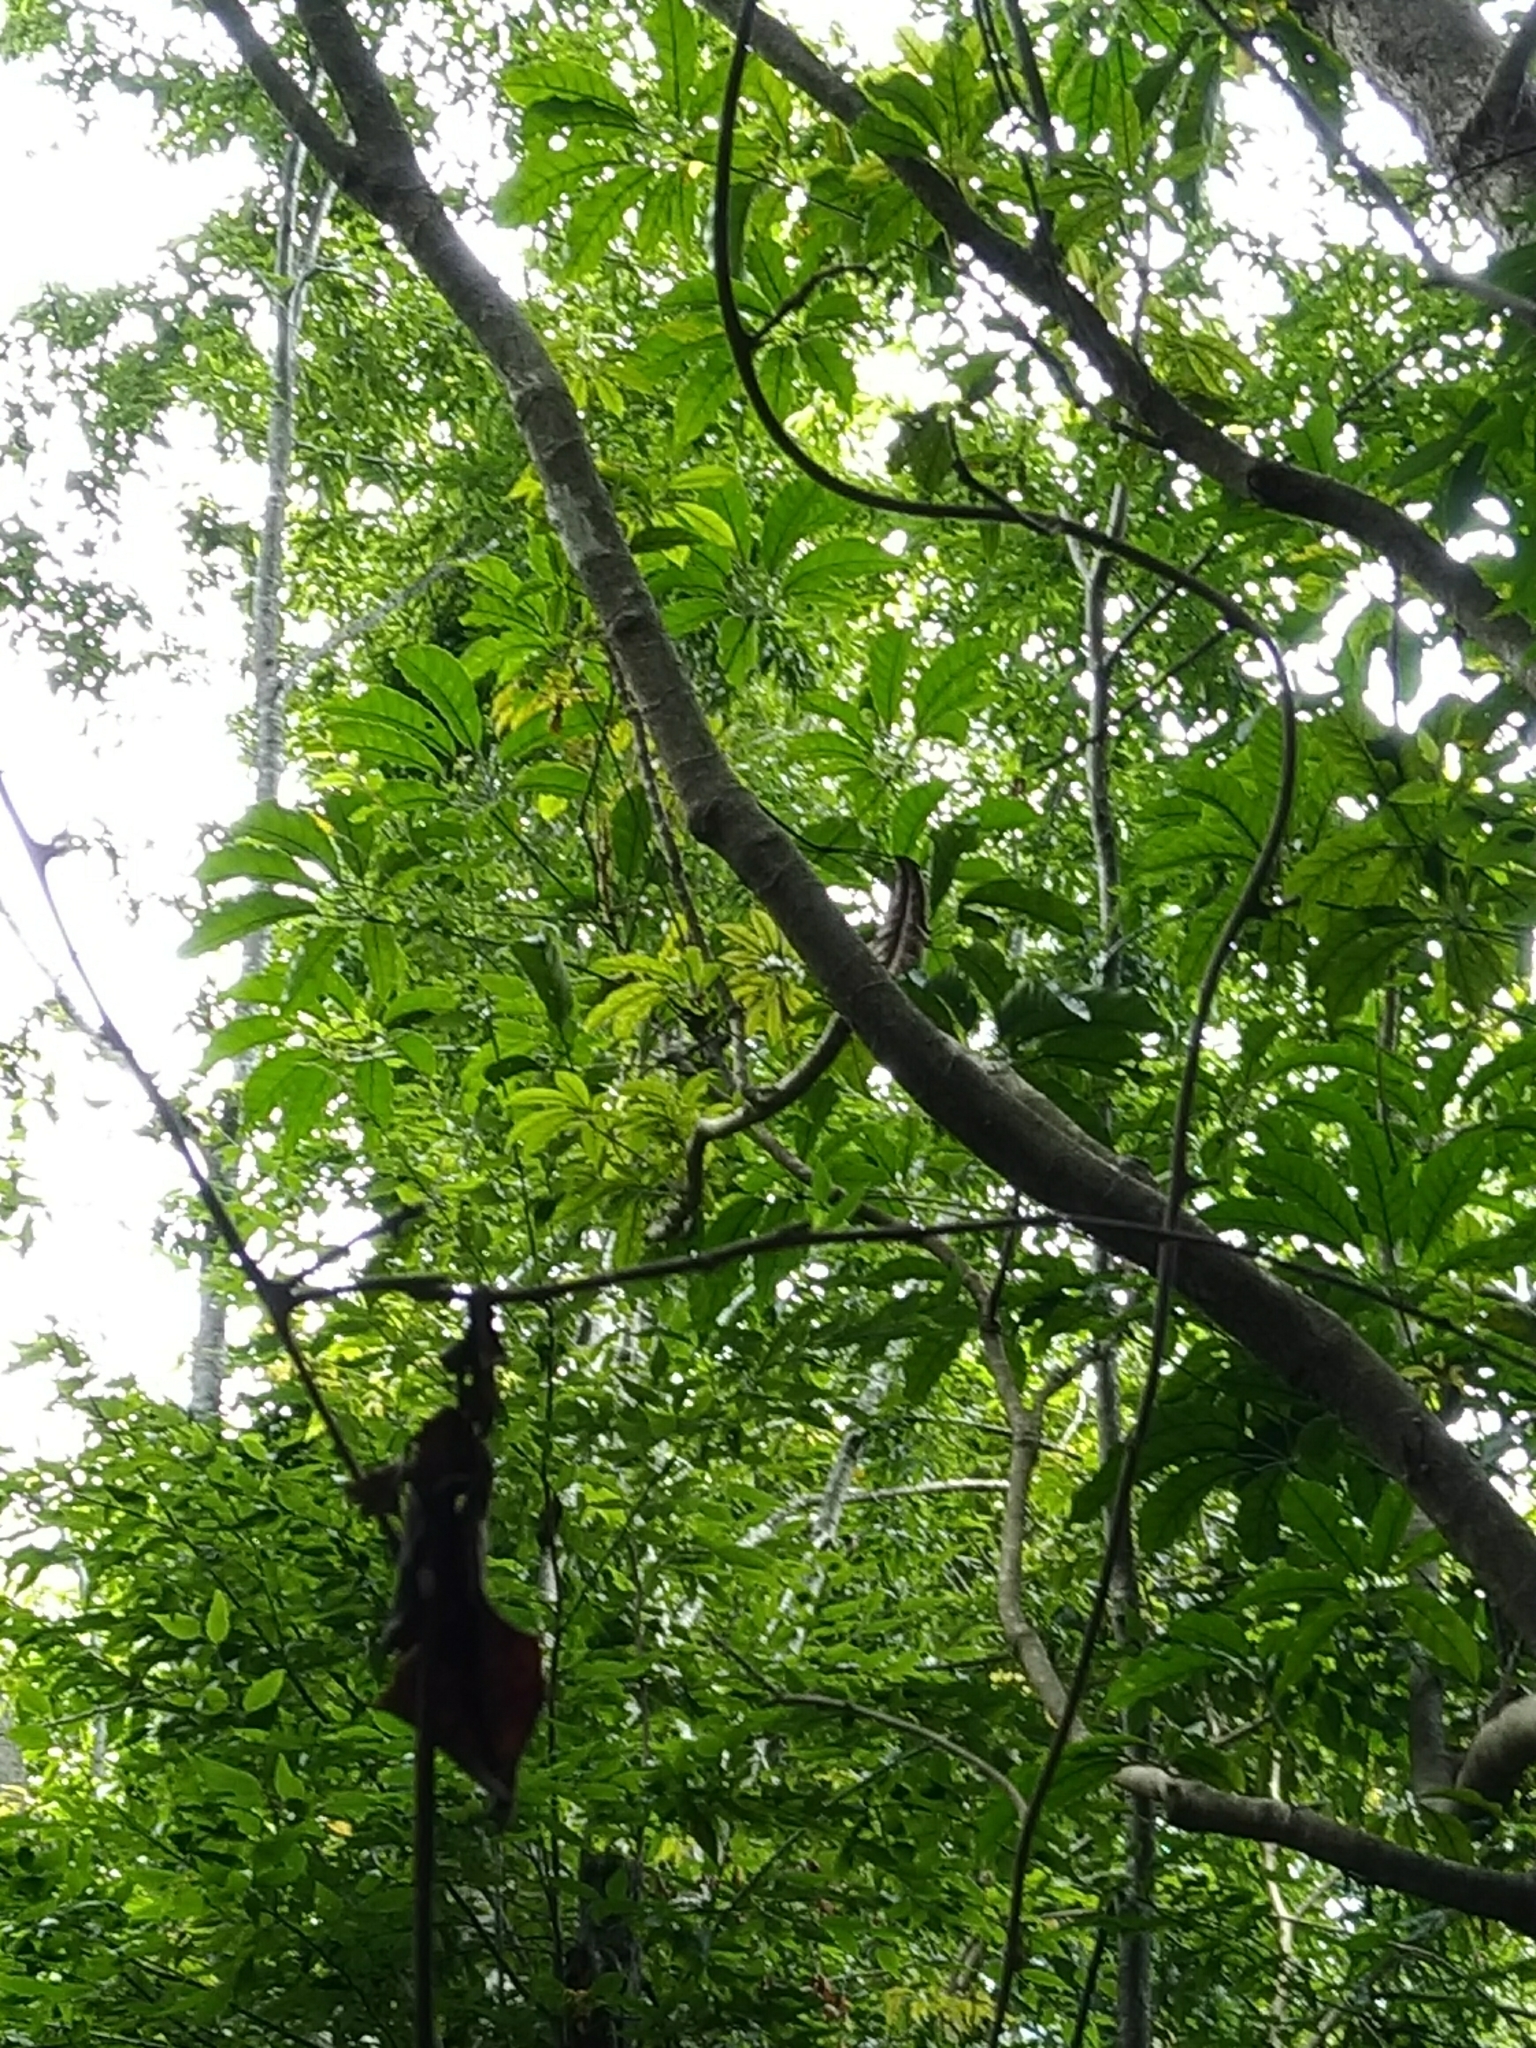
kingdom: Plantae
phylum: Tracheophyta
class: Magnoliopsida
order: Apiales
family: Araliaceae
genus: Heptapleurum
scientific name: Heptapleurum heptaphyllum
